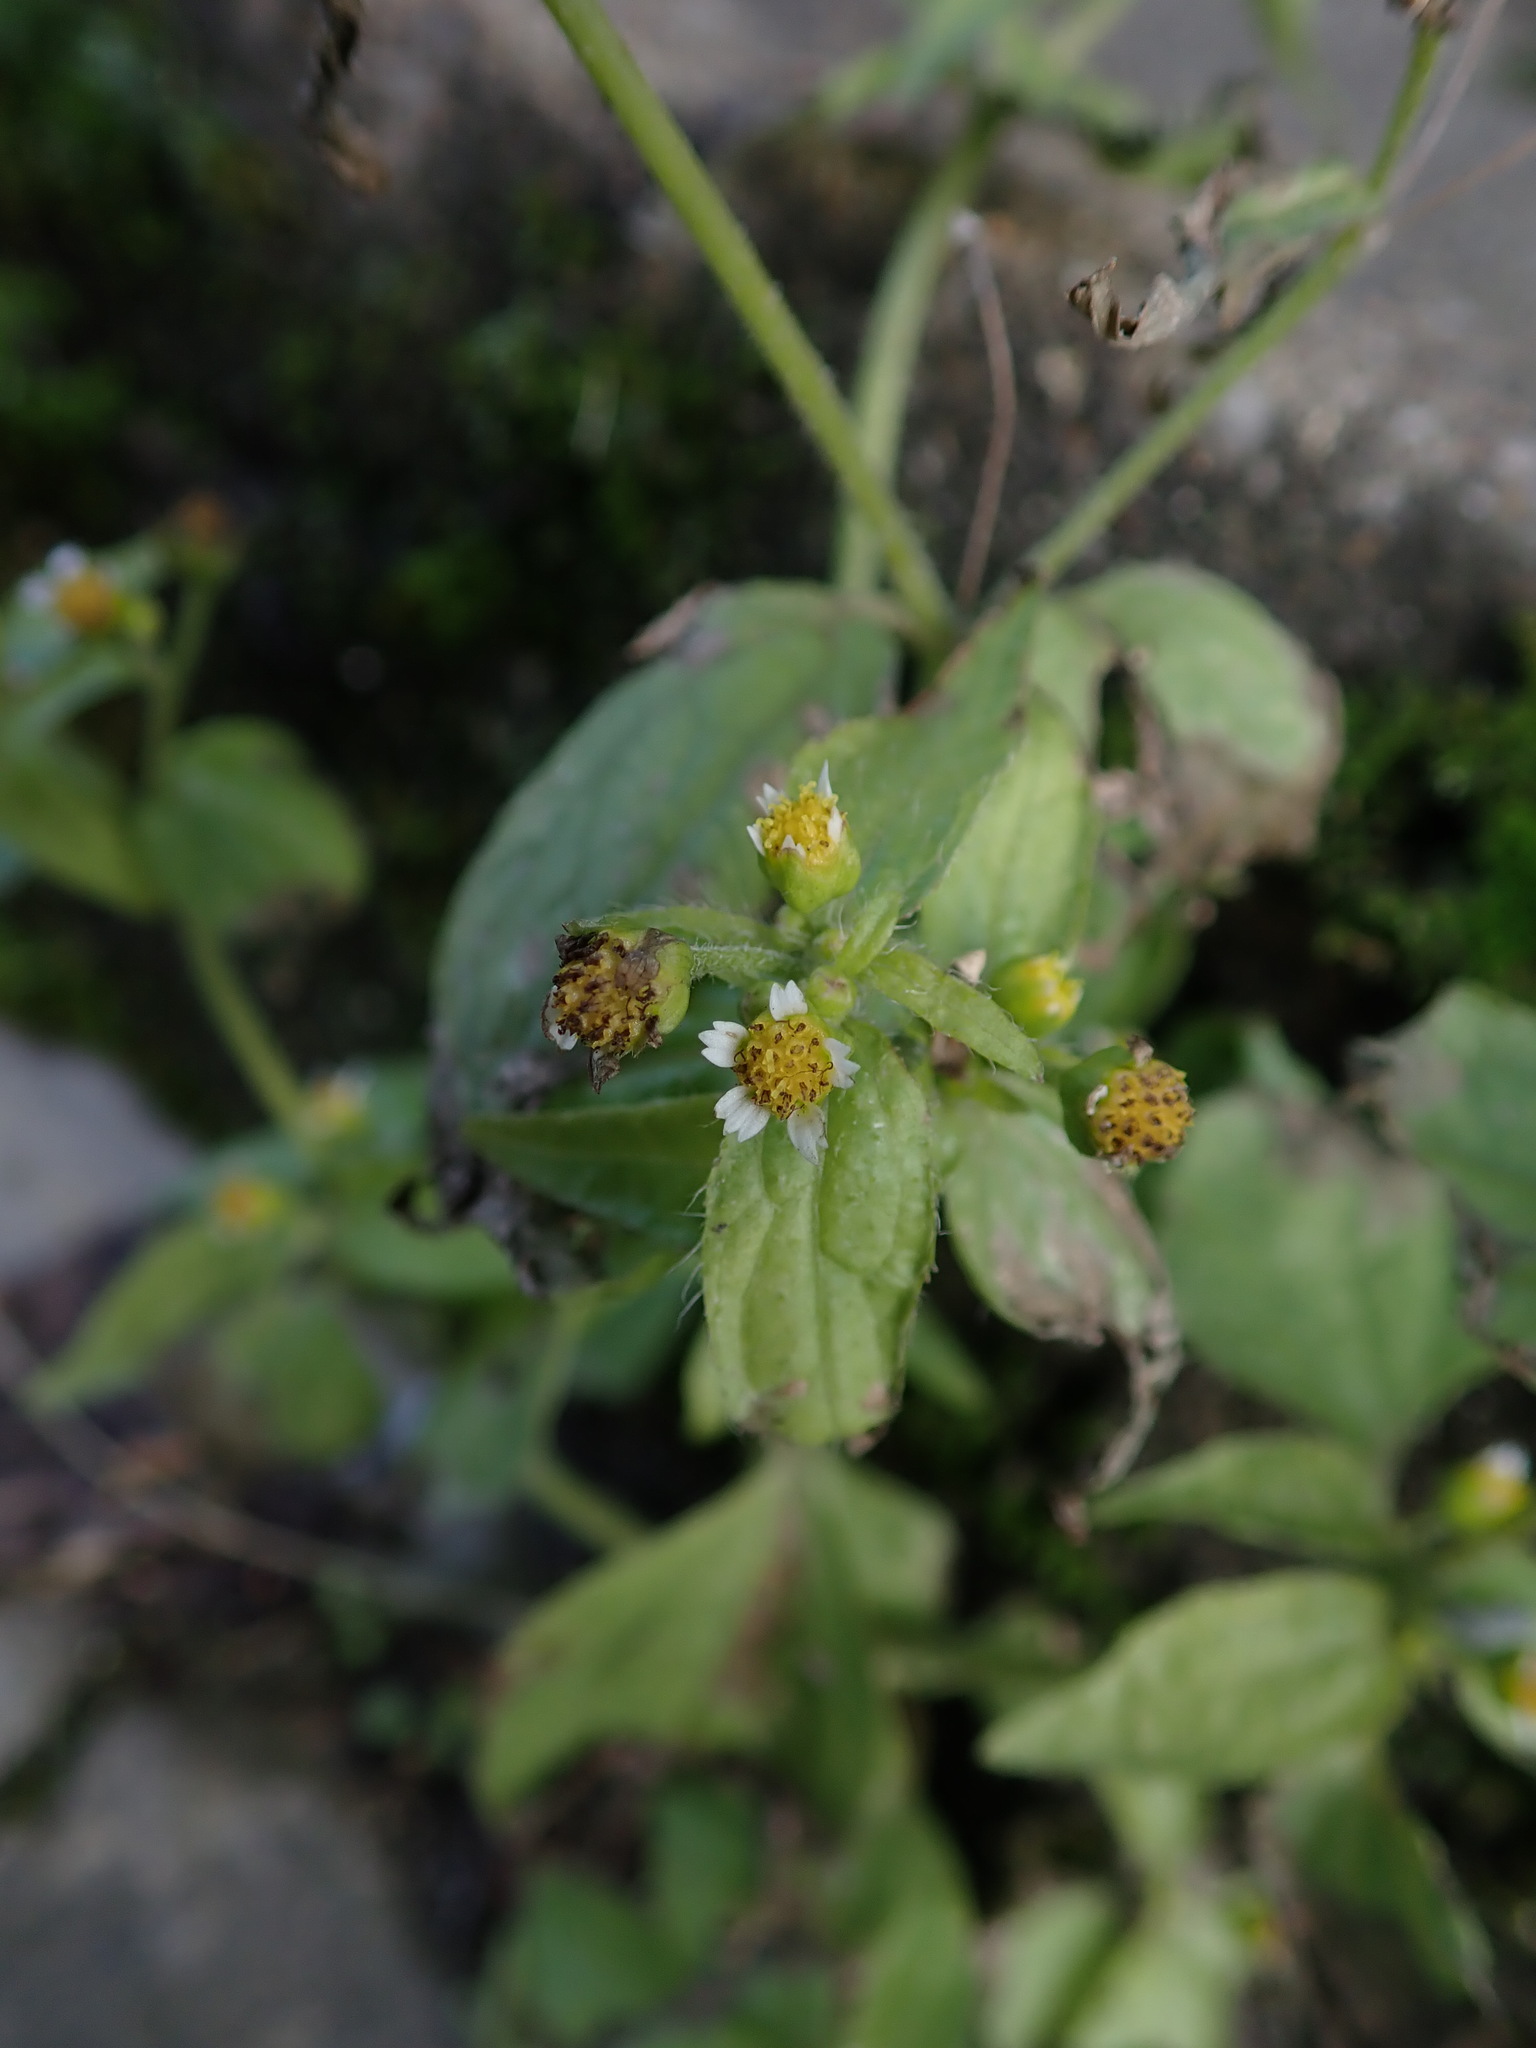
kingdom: Plantae
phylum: Tracheophyta
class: Magnoliopsida
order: Asterales
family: Asteraceae
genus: Galinsoga
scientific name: Galinsoga quadriradiata
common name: Shaggy soldier
